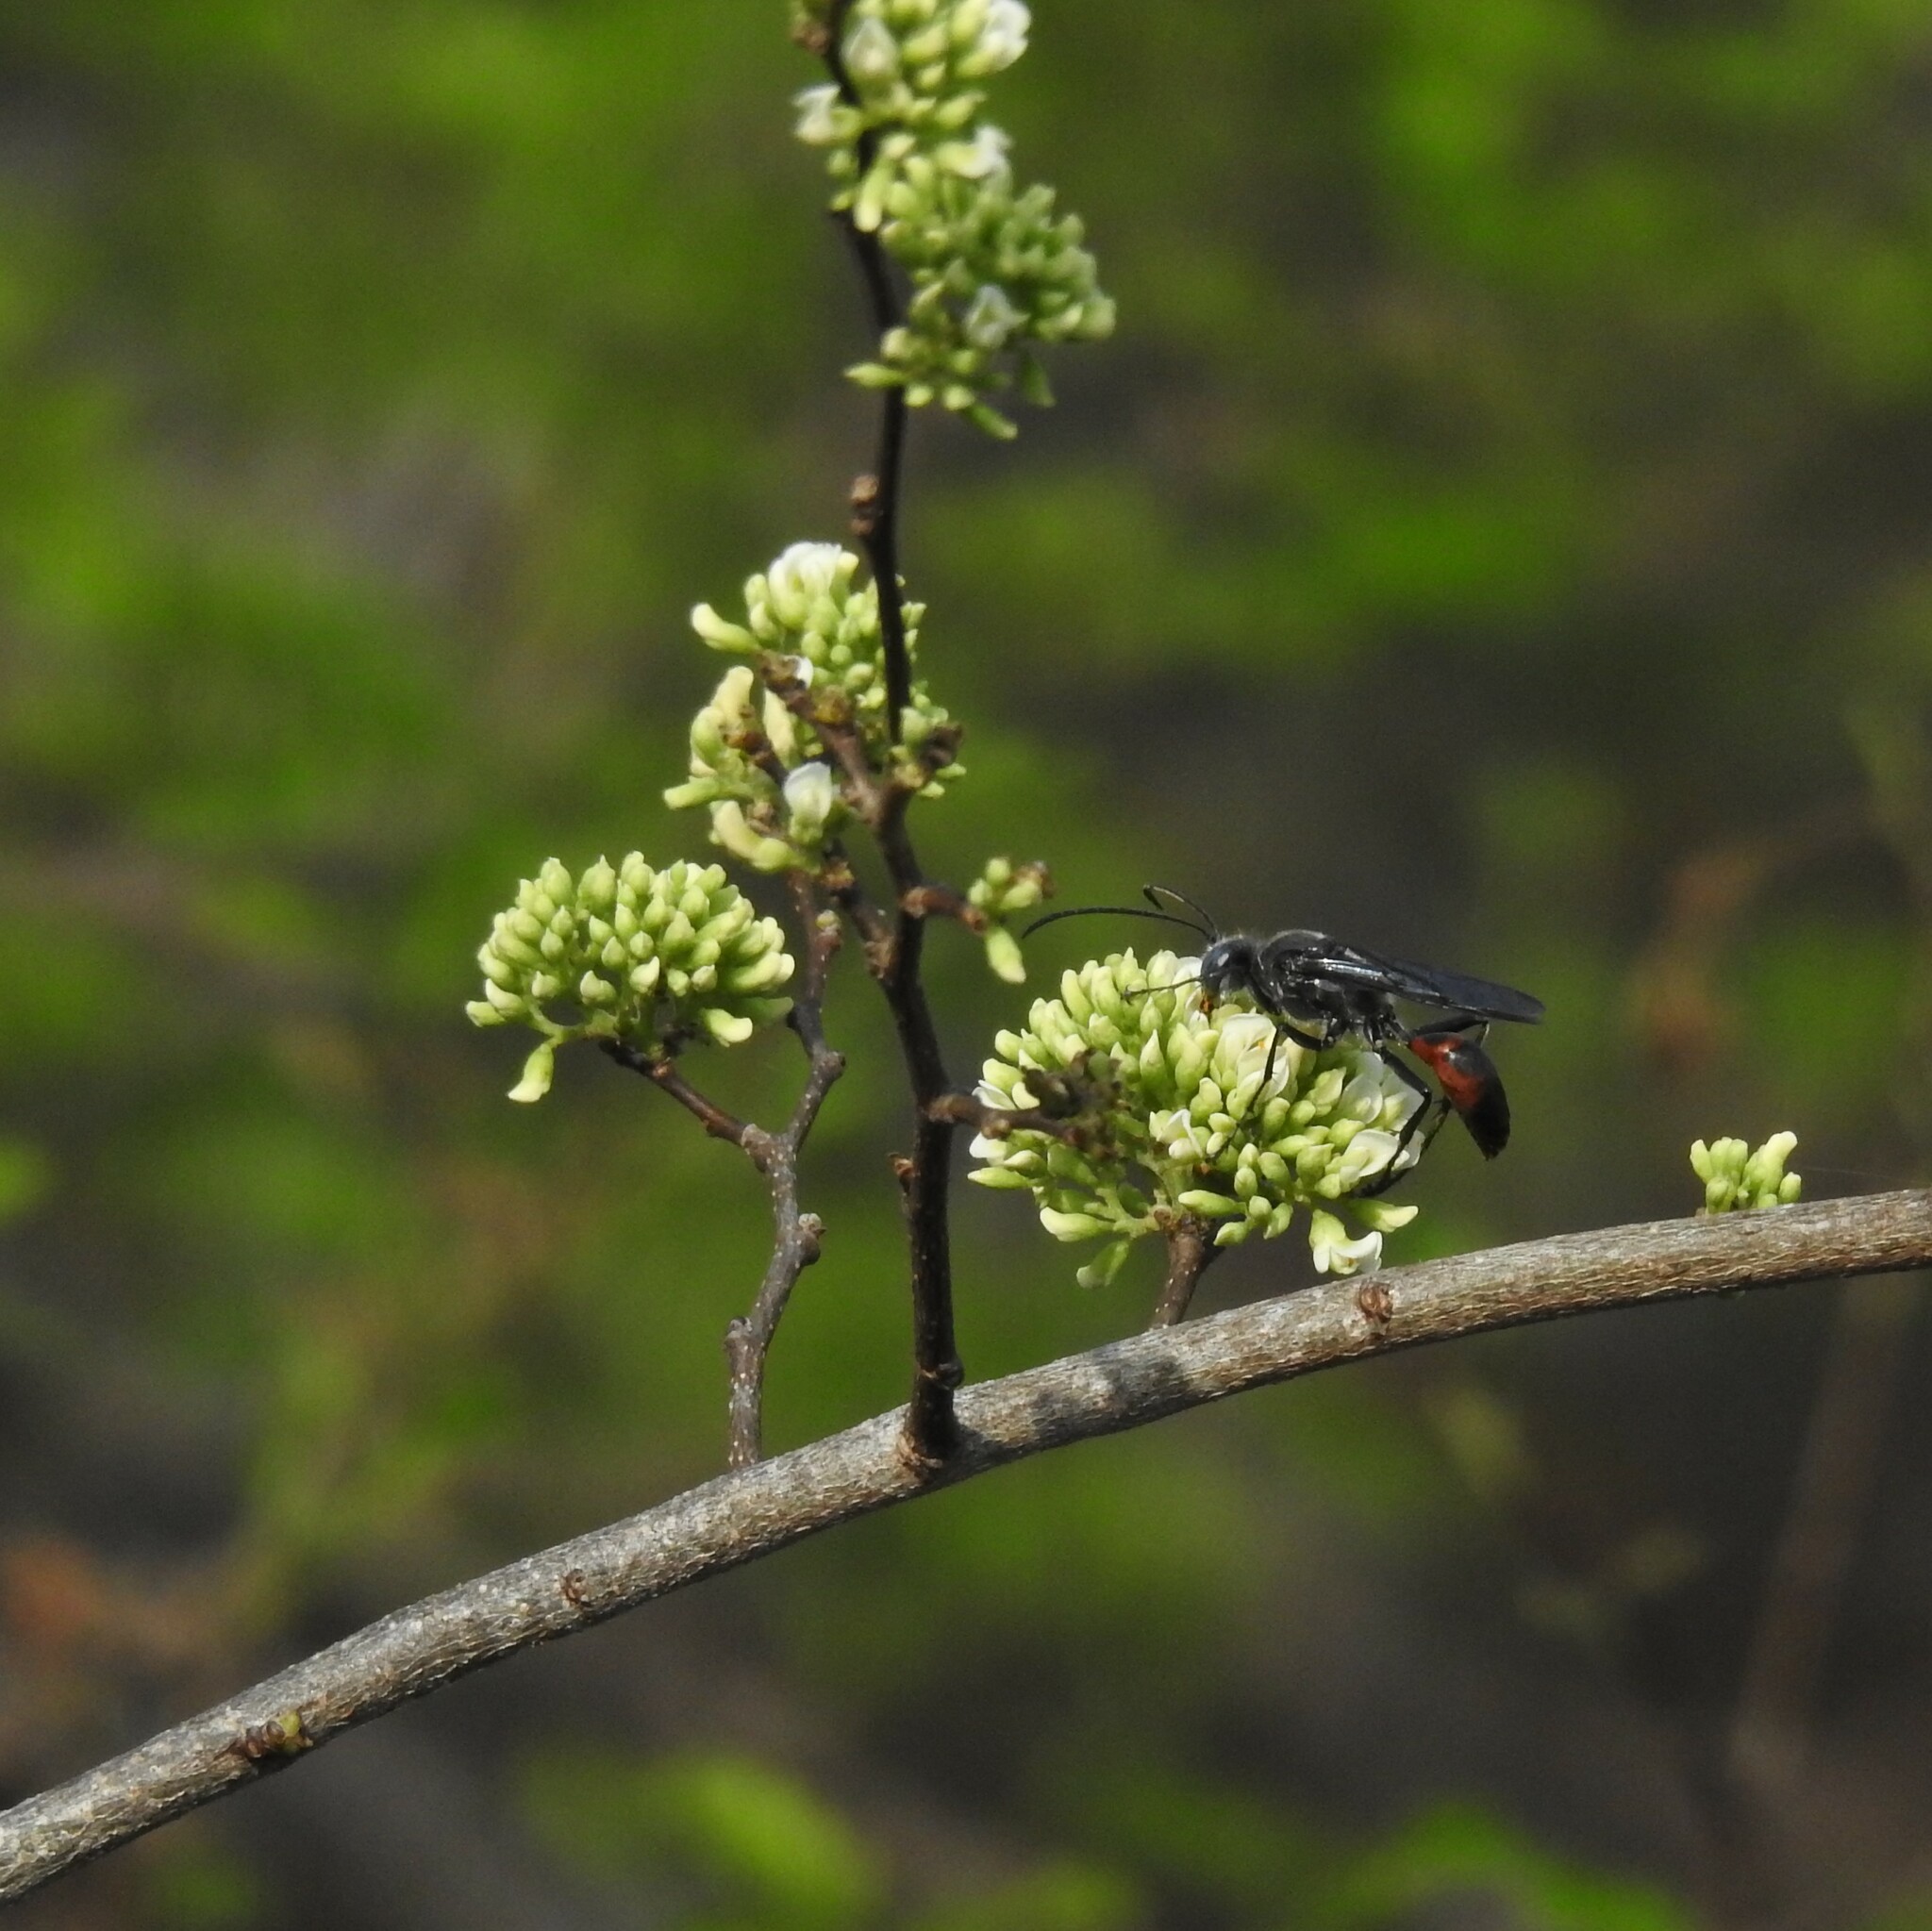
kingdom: Animalia
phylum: Arthropoda
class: Insecta
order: Hymenoptera
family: Sphecidae
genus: Sphex
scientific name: Sphex sericeus
